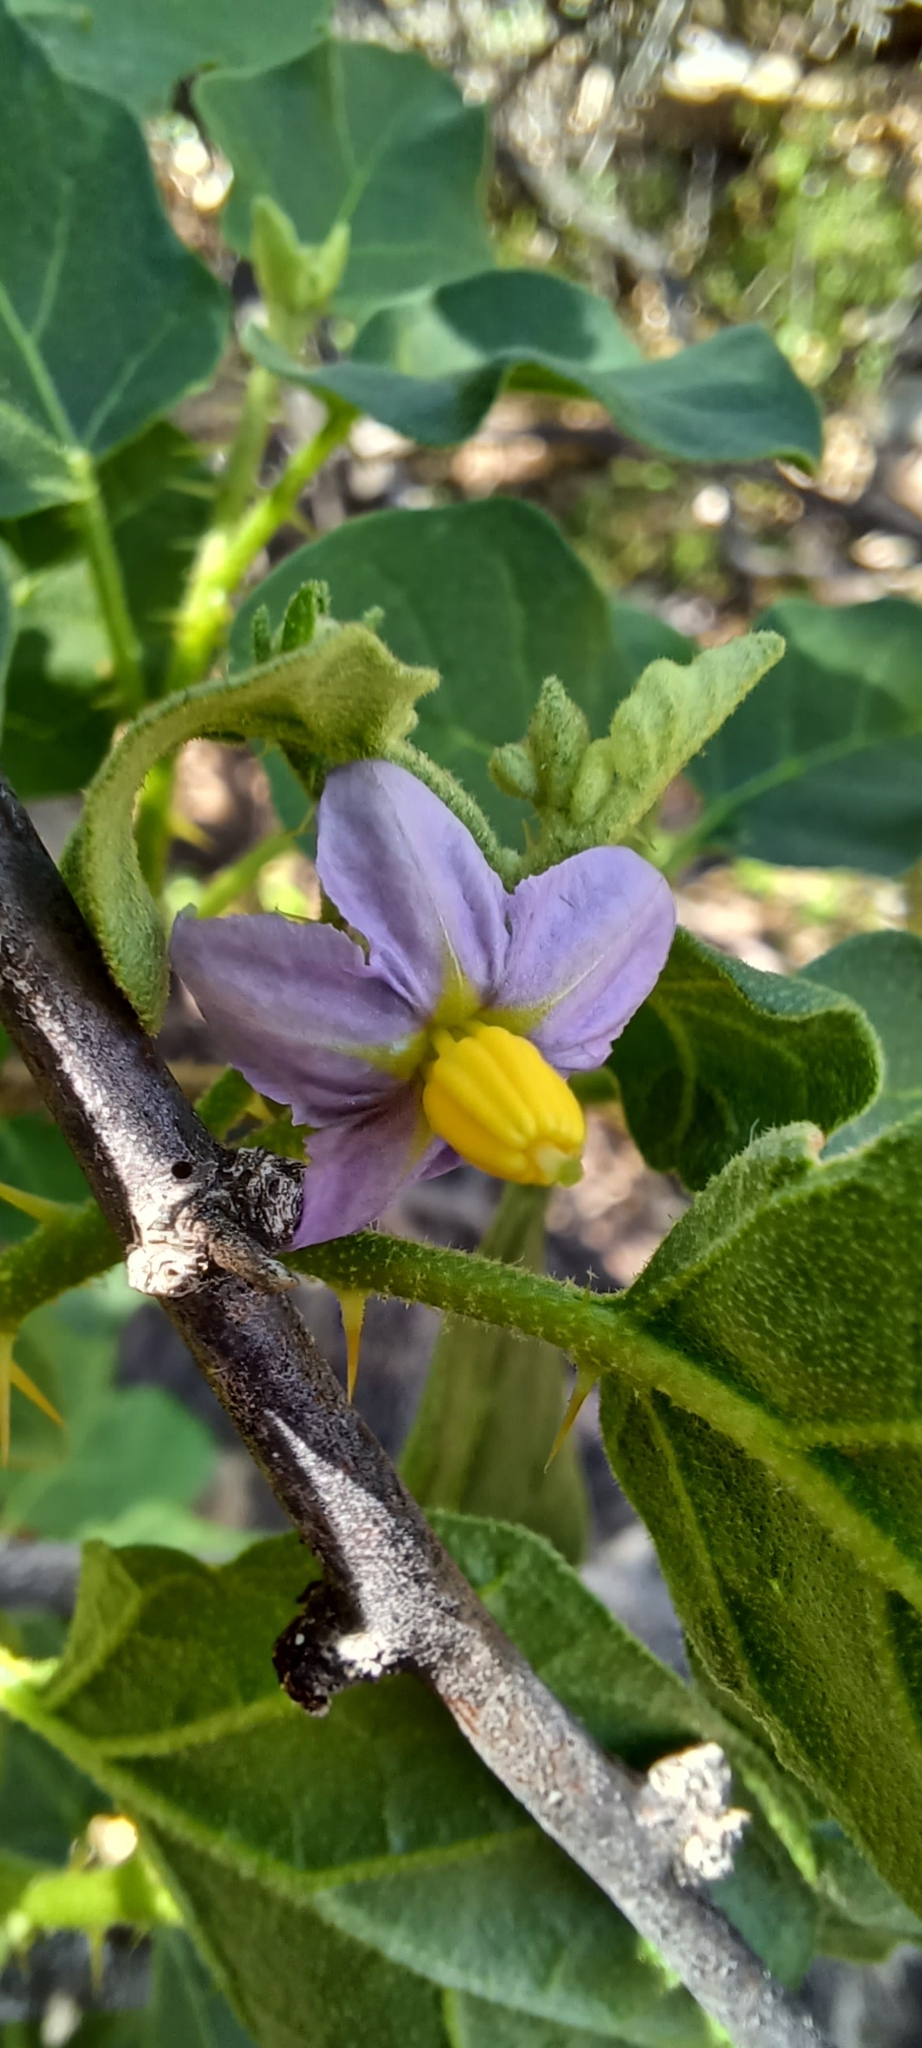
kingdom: Plantae
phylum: Tracheophyta
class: Magnoliopsida
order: Solanales
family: Solanaceae
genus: Solanum
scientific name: Solanum tomentosum
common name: Wild aubergine
